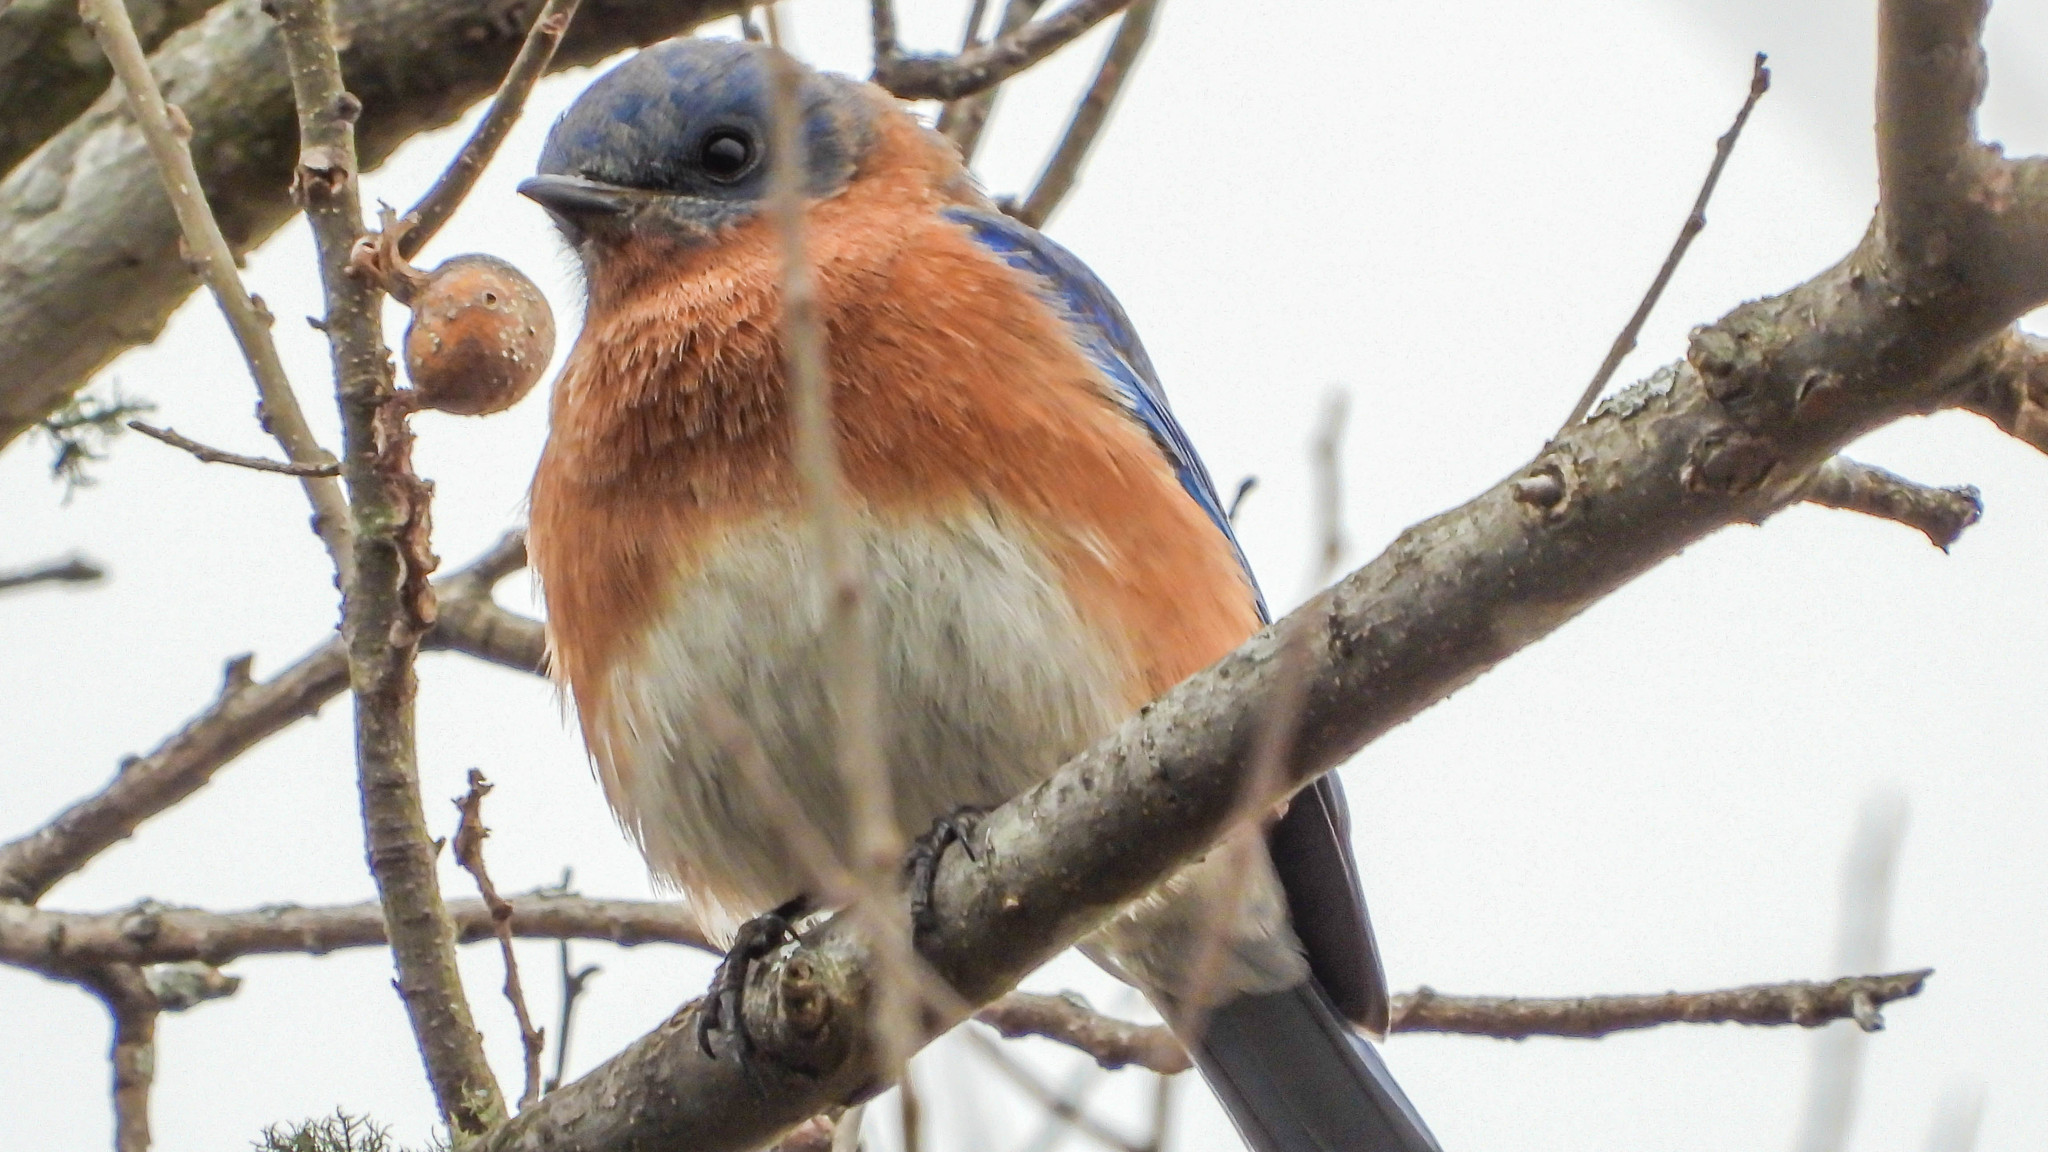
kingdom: Animalia
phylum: Chordata
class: Aves
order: Passeriformes
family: Turdidae
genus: Sialia
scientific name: Sialia sialis
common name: Eastern bluebird
